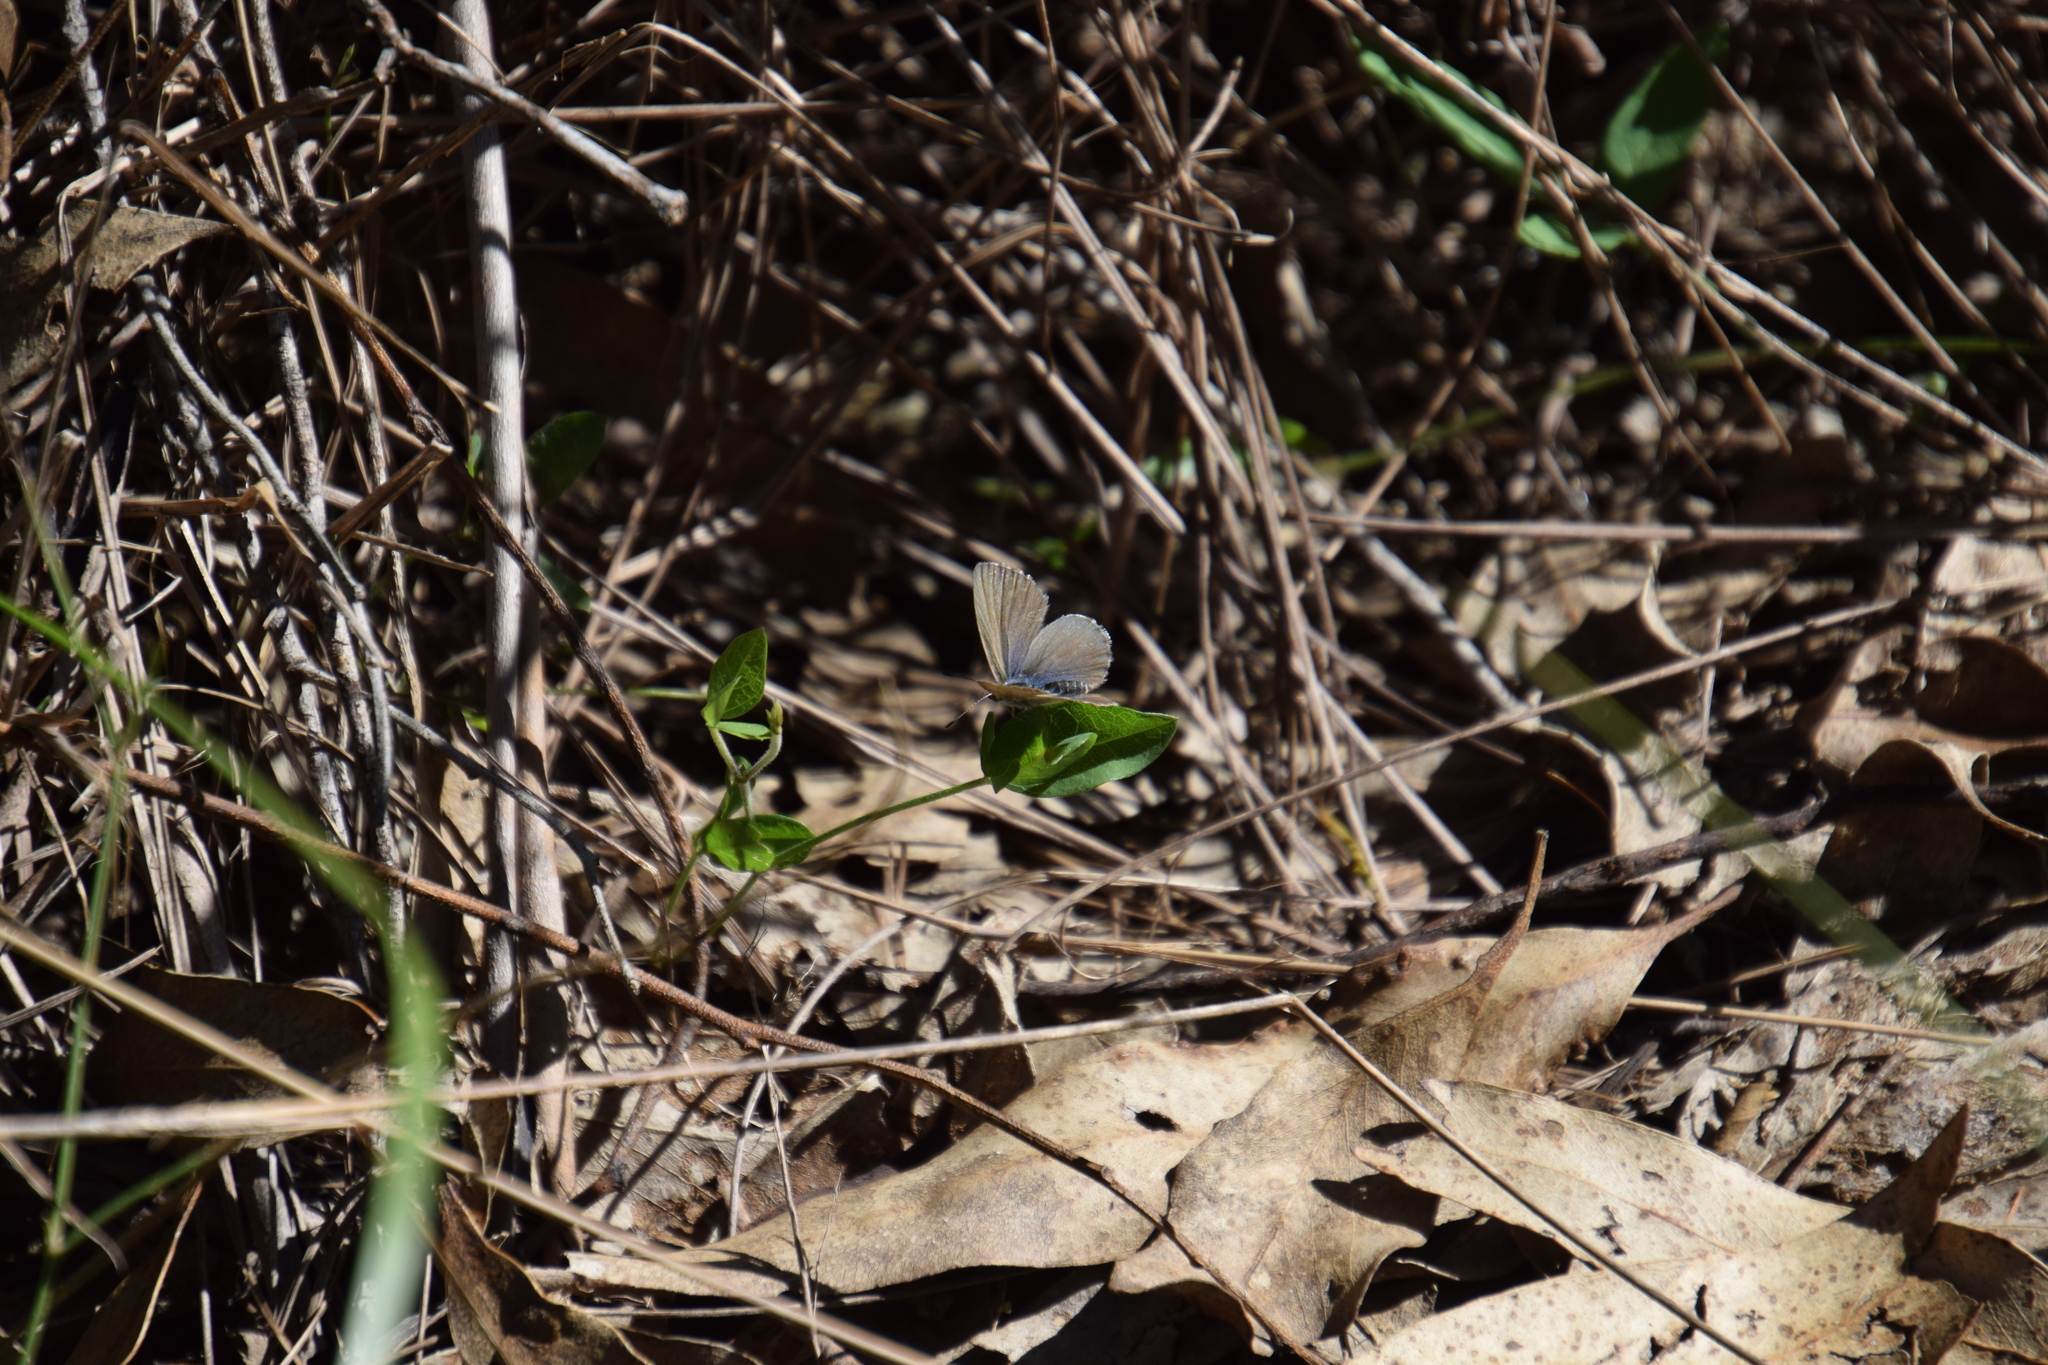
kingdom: Animalia
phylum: Arthropoda
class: Insecta
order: Lepidoptera
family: Lycaenidae
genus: Zizina
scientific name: Zizina labradus
